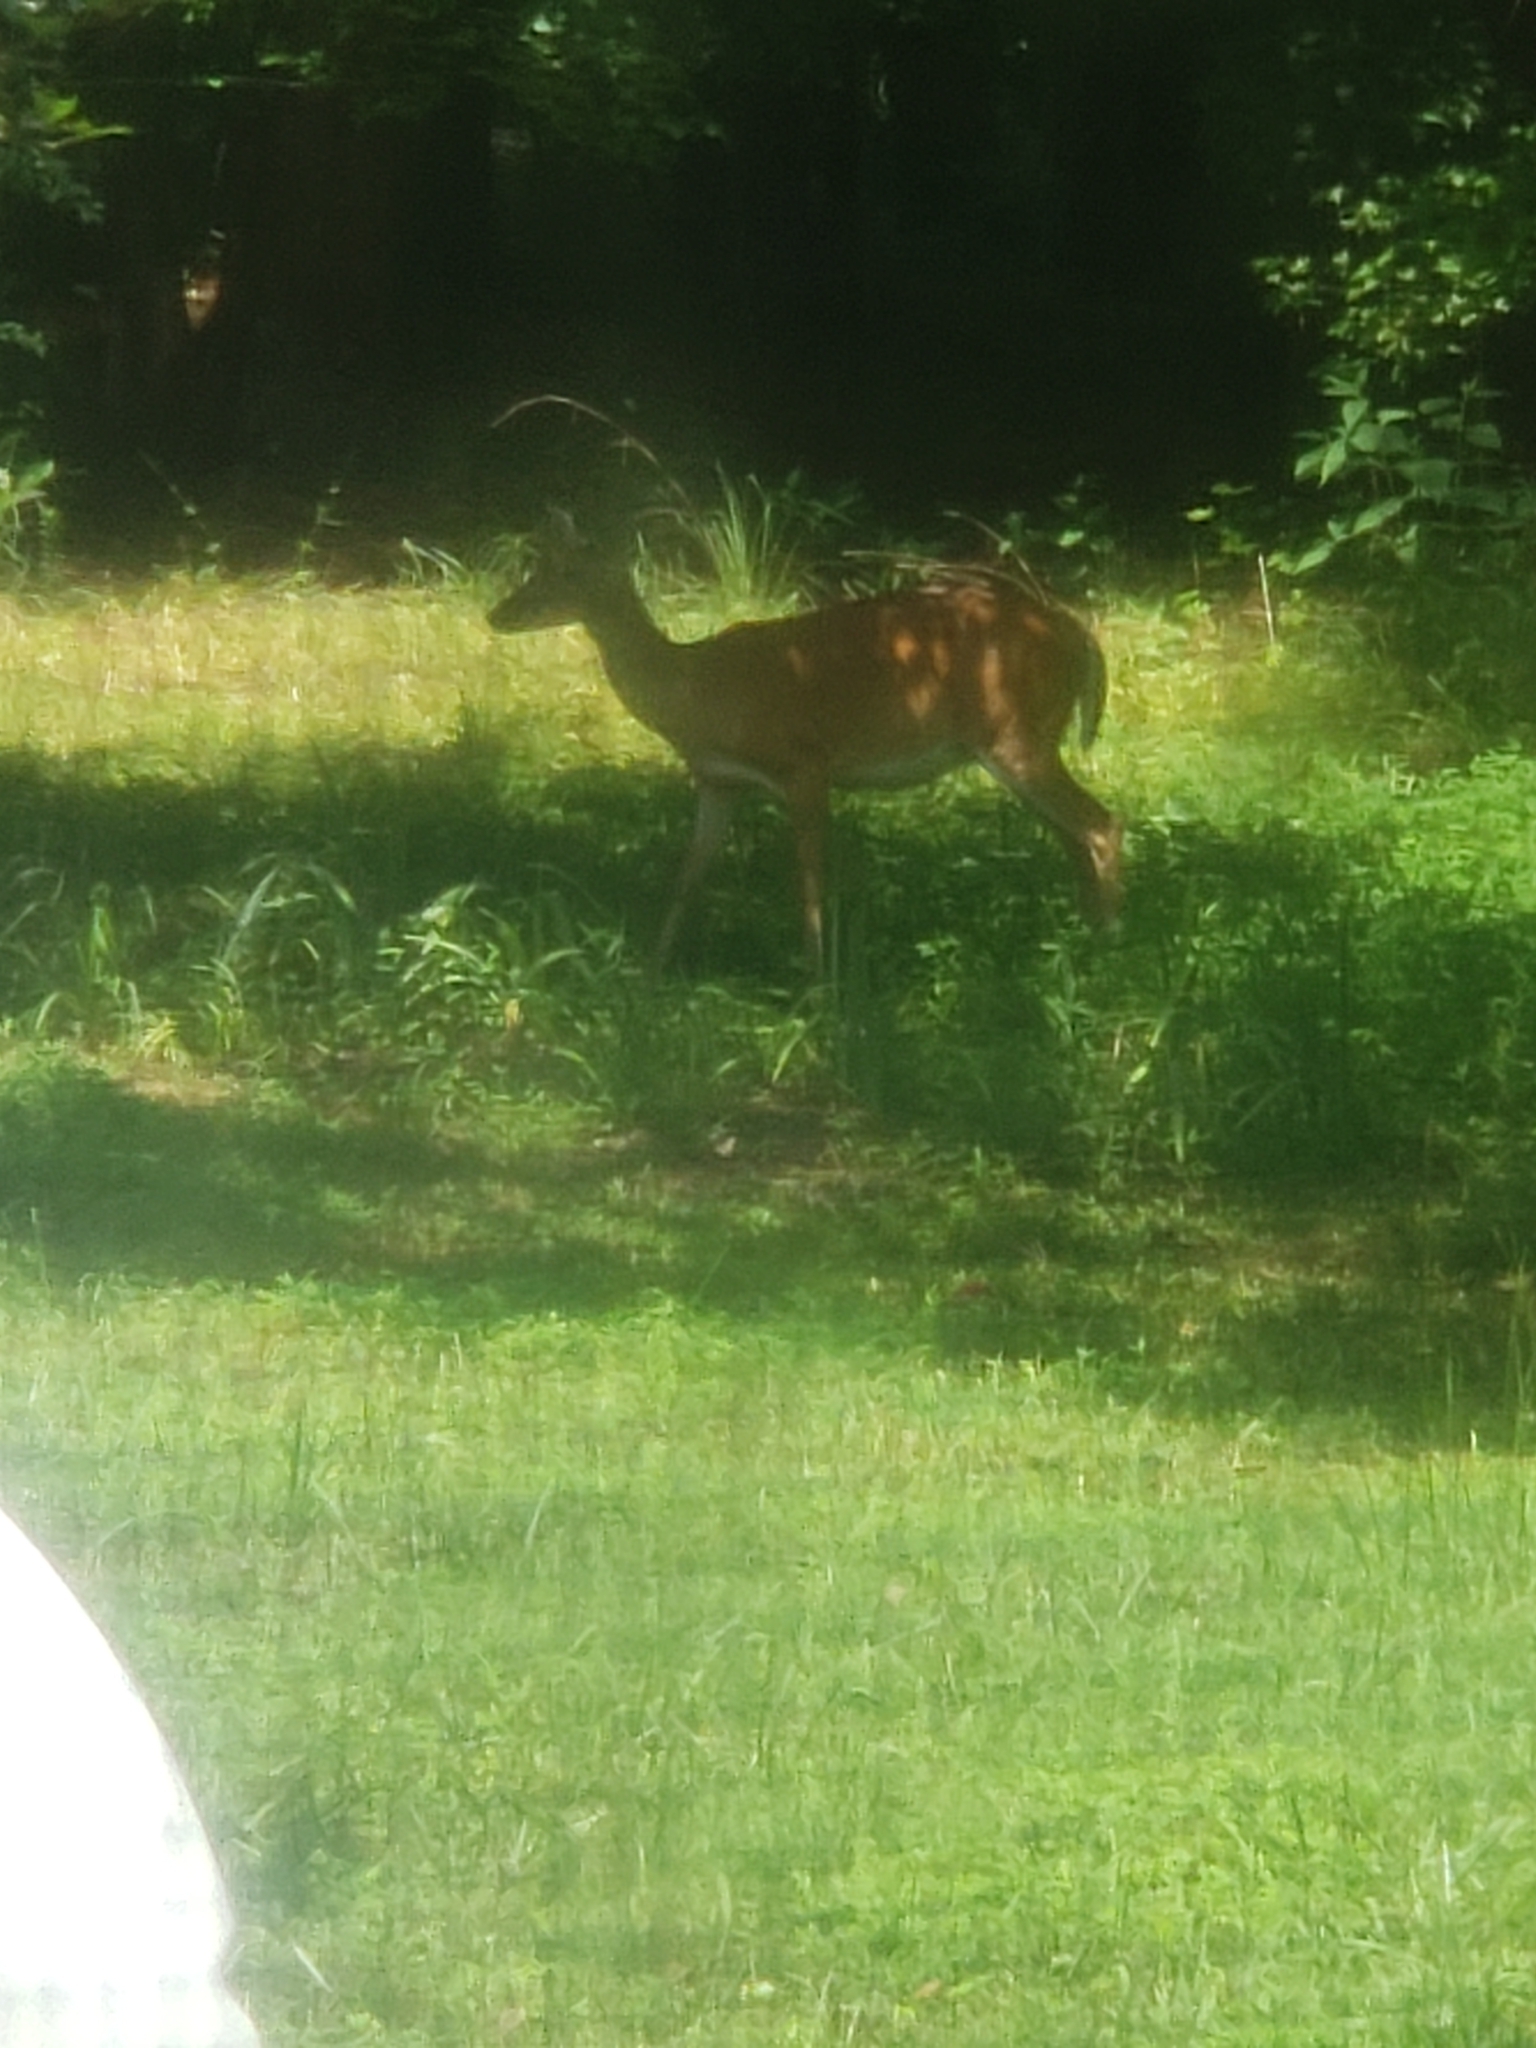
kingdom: Animalia
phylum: Chordata
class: Mammalia
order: Artiodactyla
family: Cervidae
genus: Odocoileus
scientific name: Odocoileus virginianus
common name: White-tailed deer
